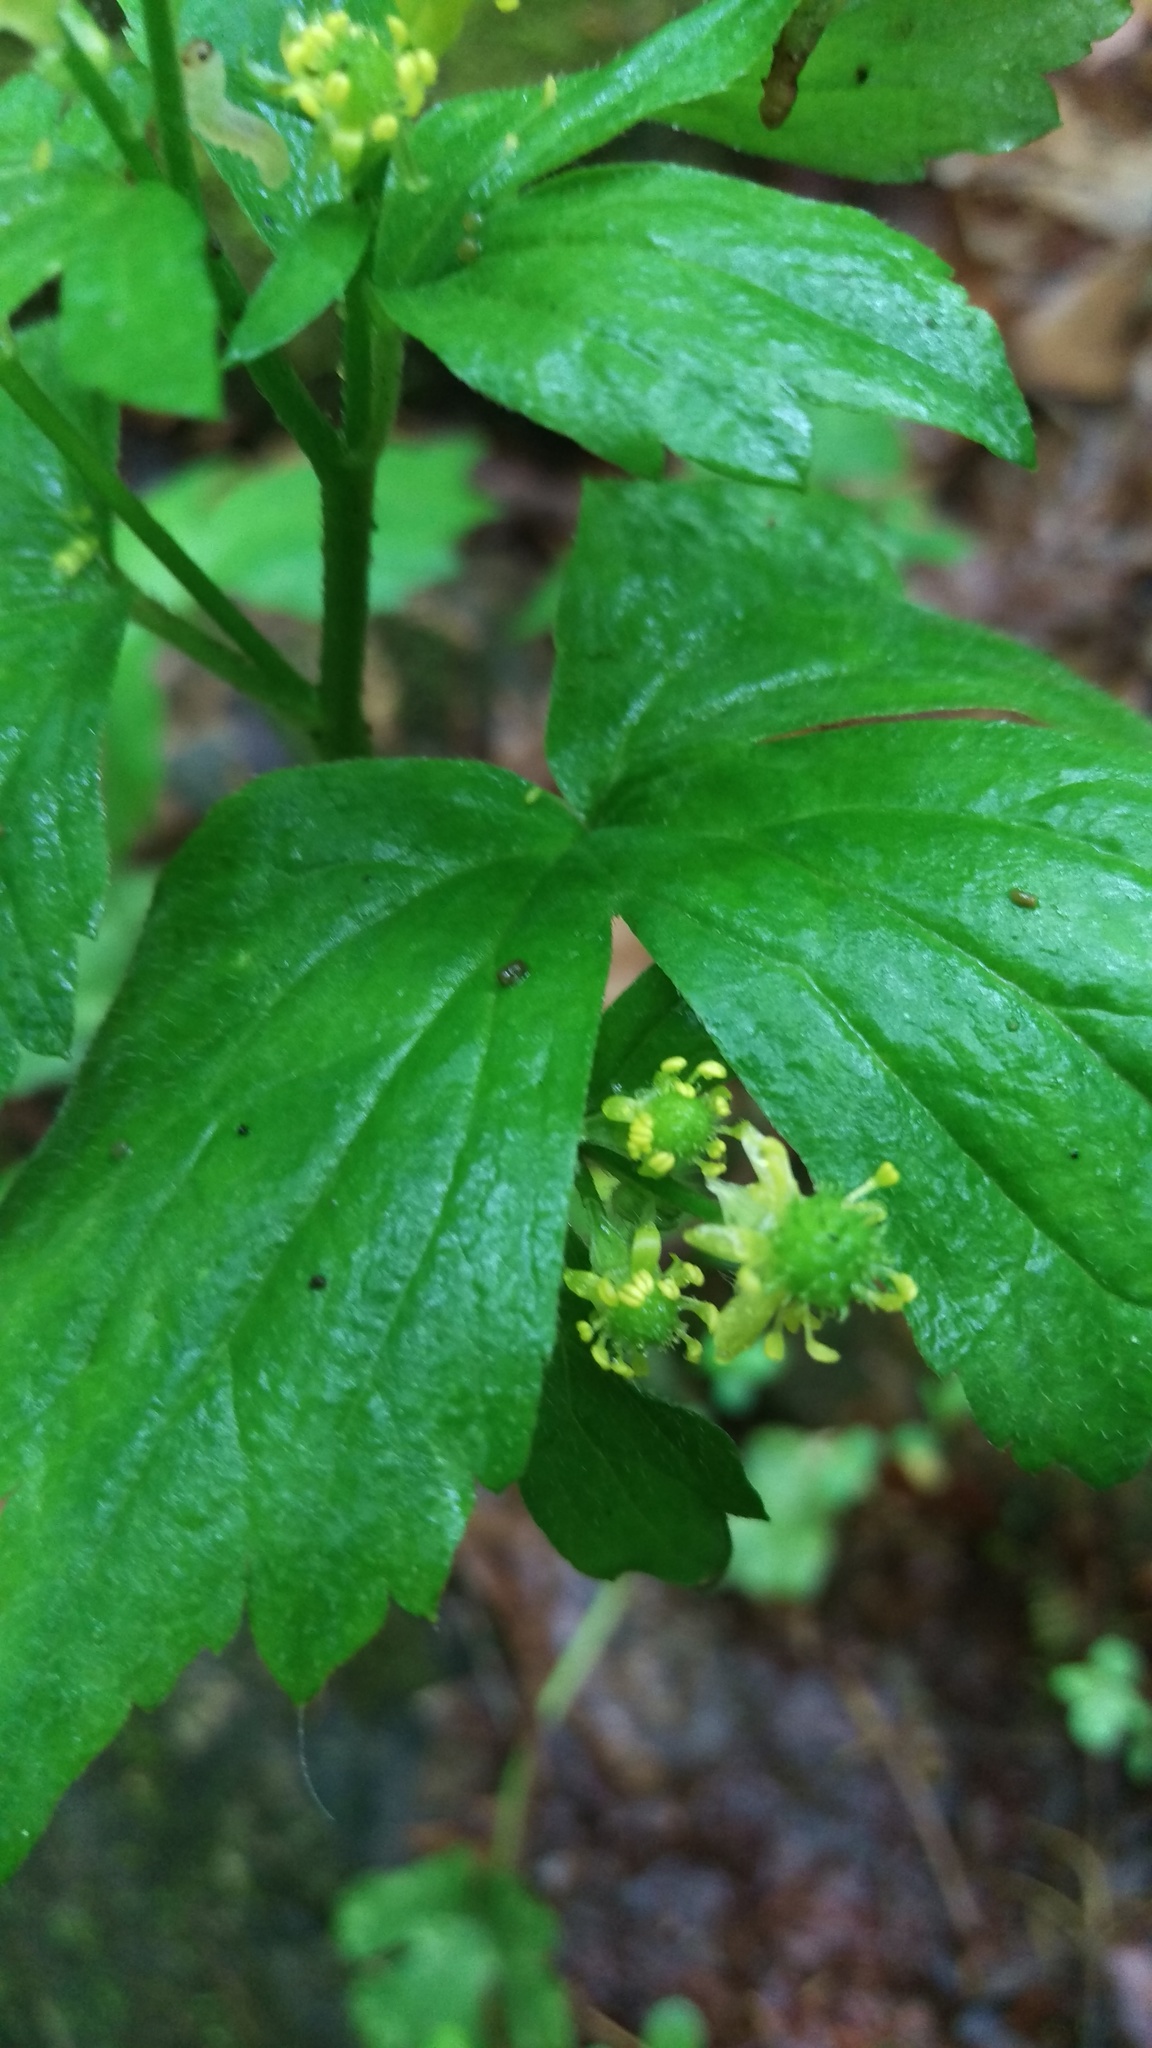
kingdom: Plantae
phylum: Tracheophyta
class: Magnoliopsida
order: Ranunculales
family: Ranunculaceae
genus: Ranunculus
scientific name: Ranunculus recurvatus
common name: Blisterwort
